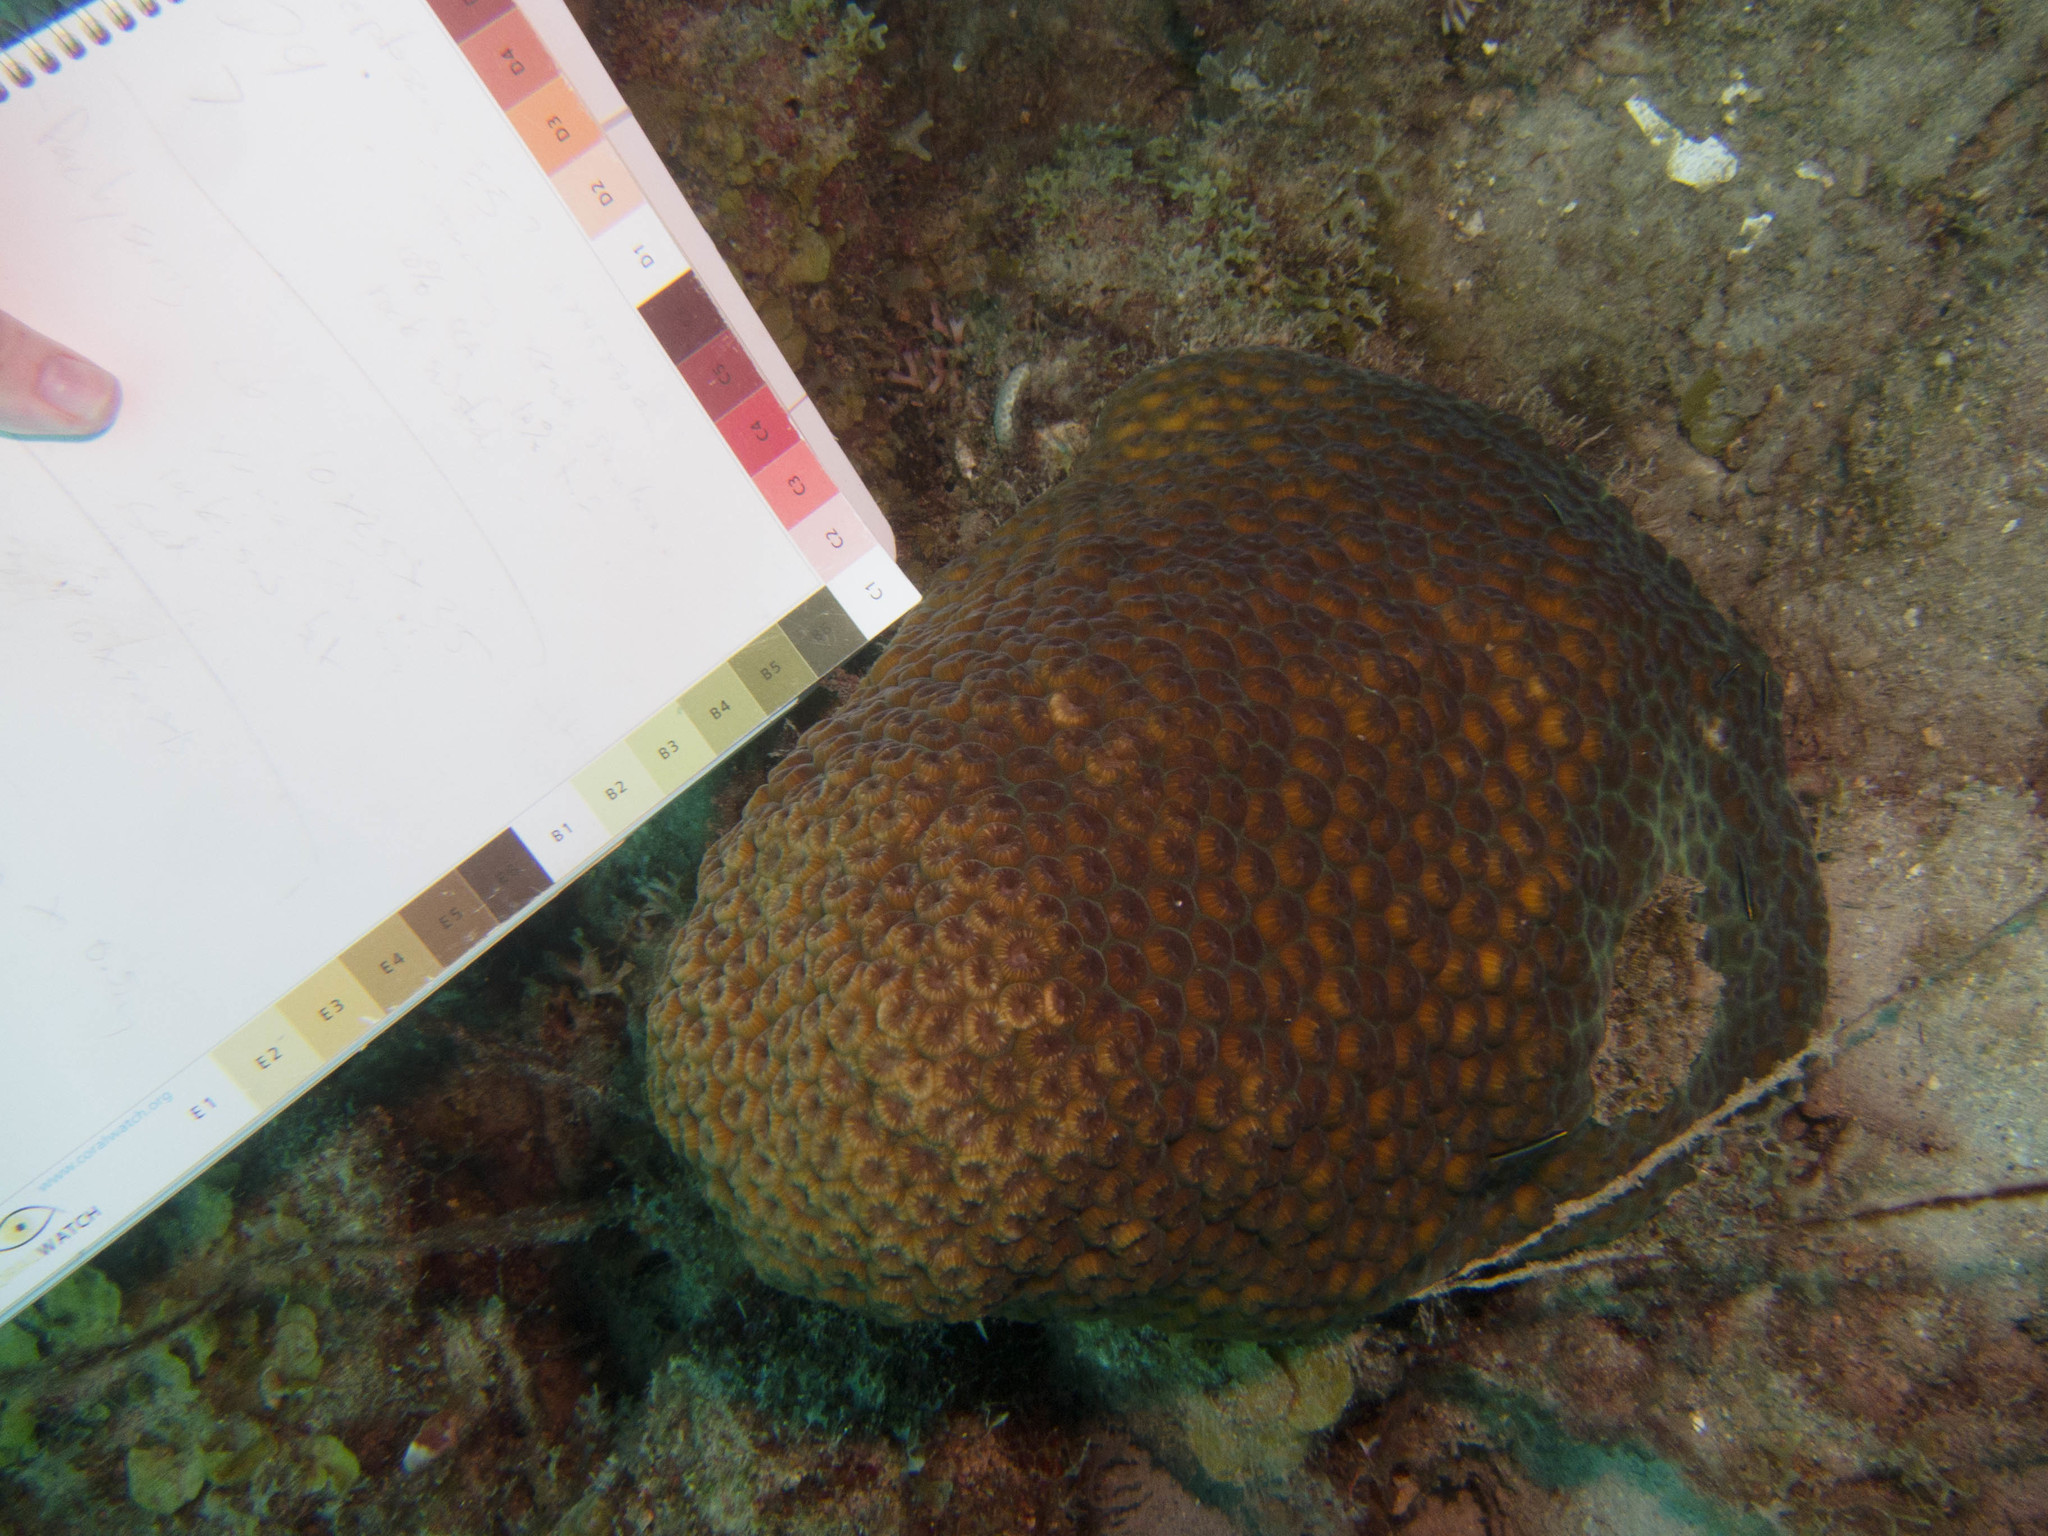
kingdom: Animalia
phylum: Cnidaria
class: Anthozoa
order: Scleractinia
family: Montastraeidae
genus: Montastraea
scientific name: Montastraea cavernosa
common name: Great star coral
